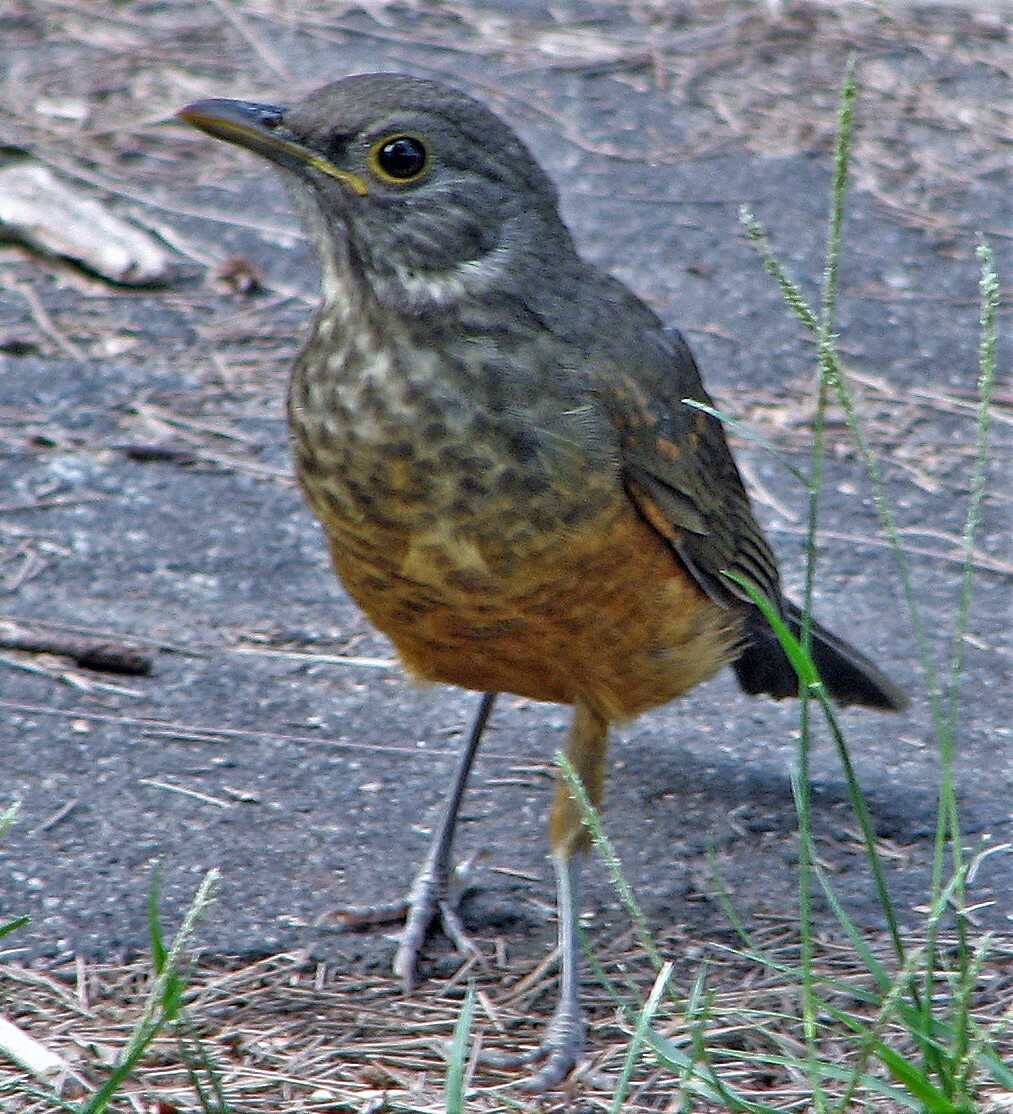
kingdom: Animalia
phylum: Chordata
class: Aves
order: Passeriformes
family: Turdidae
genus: Turdus
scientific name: Turdus rufiventris
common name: Rufous-bellied thrush
